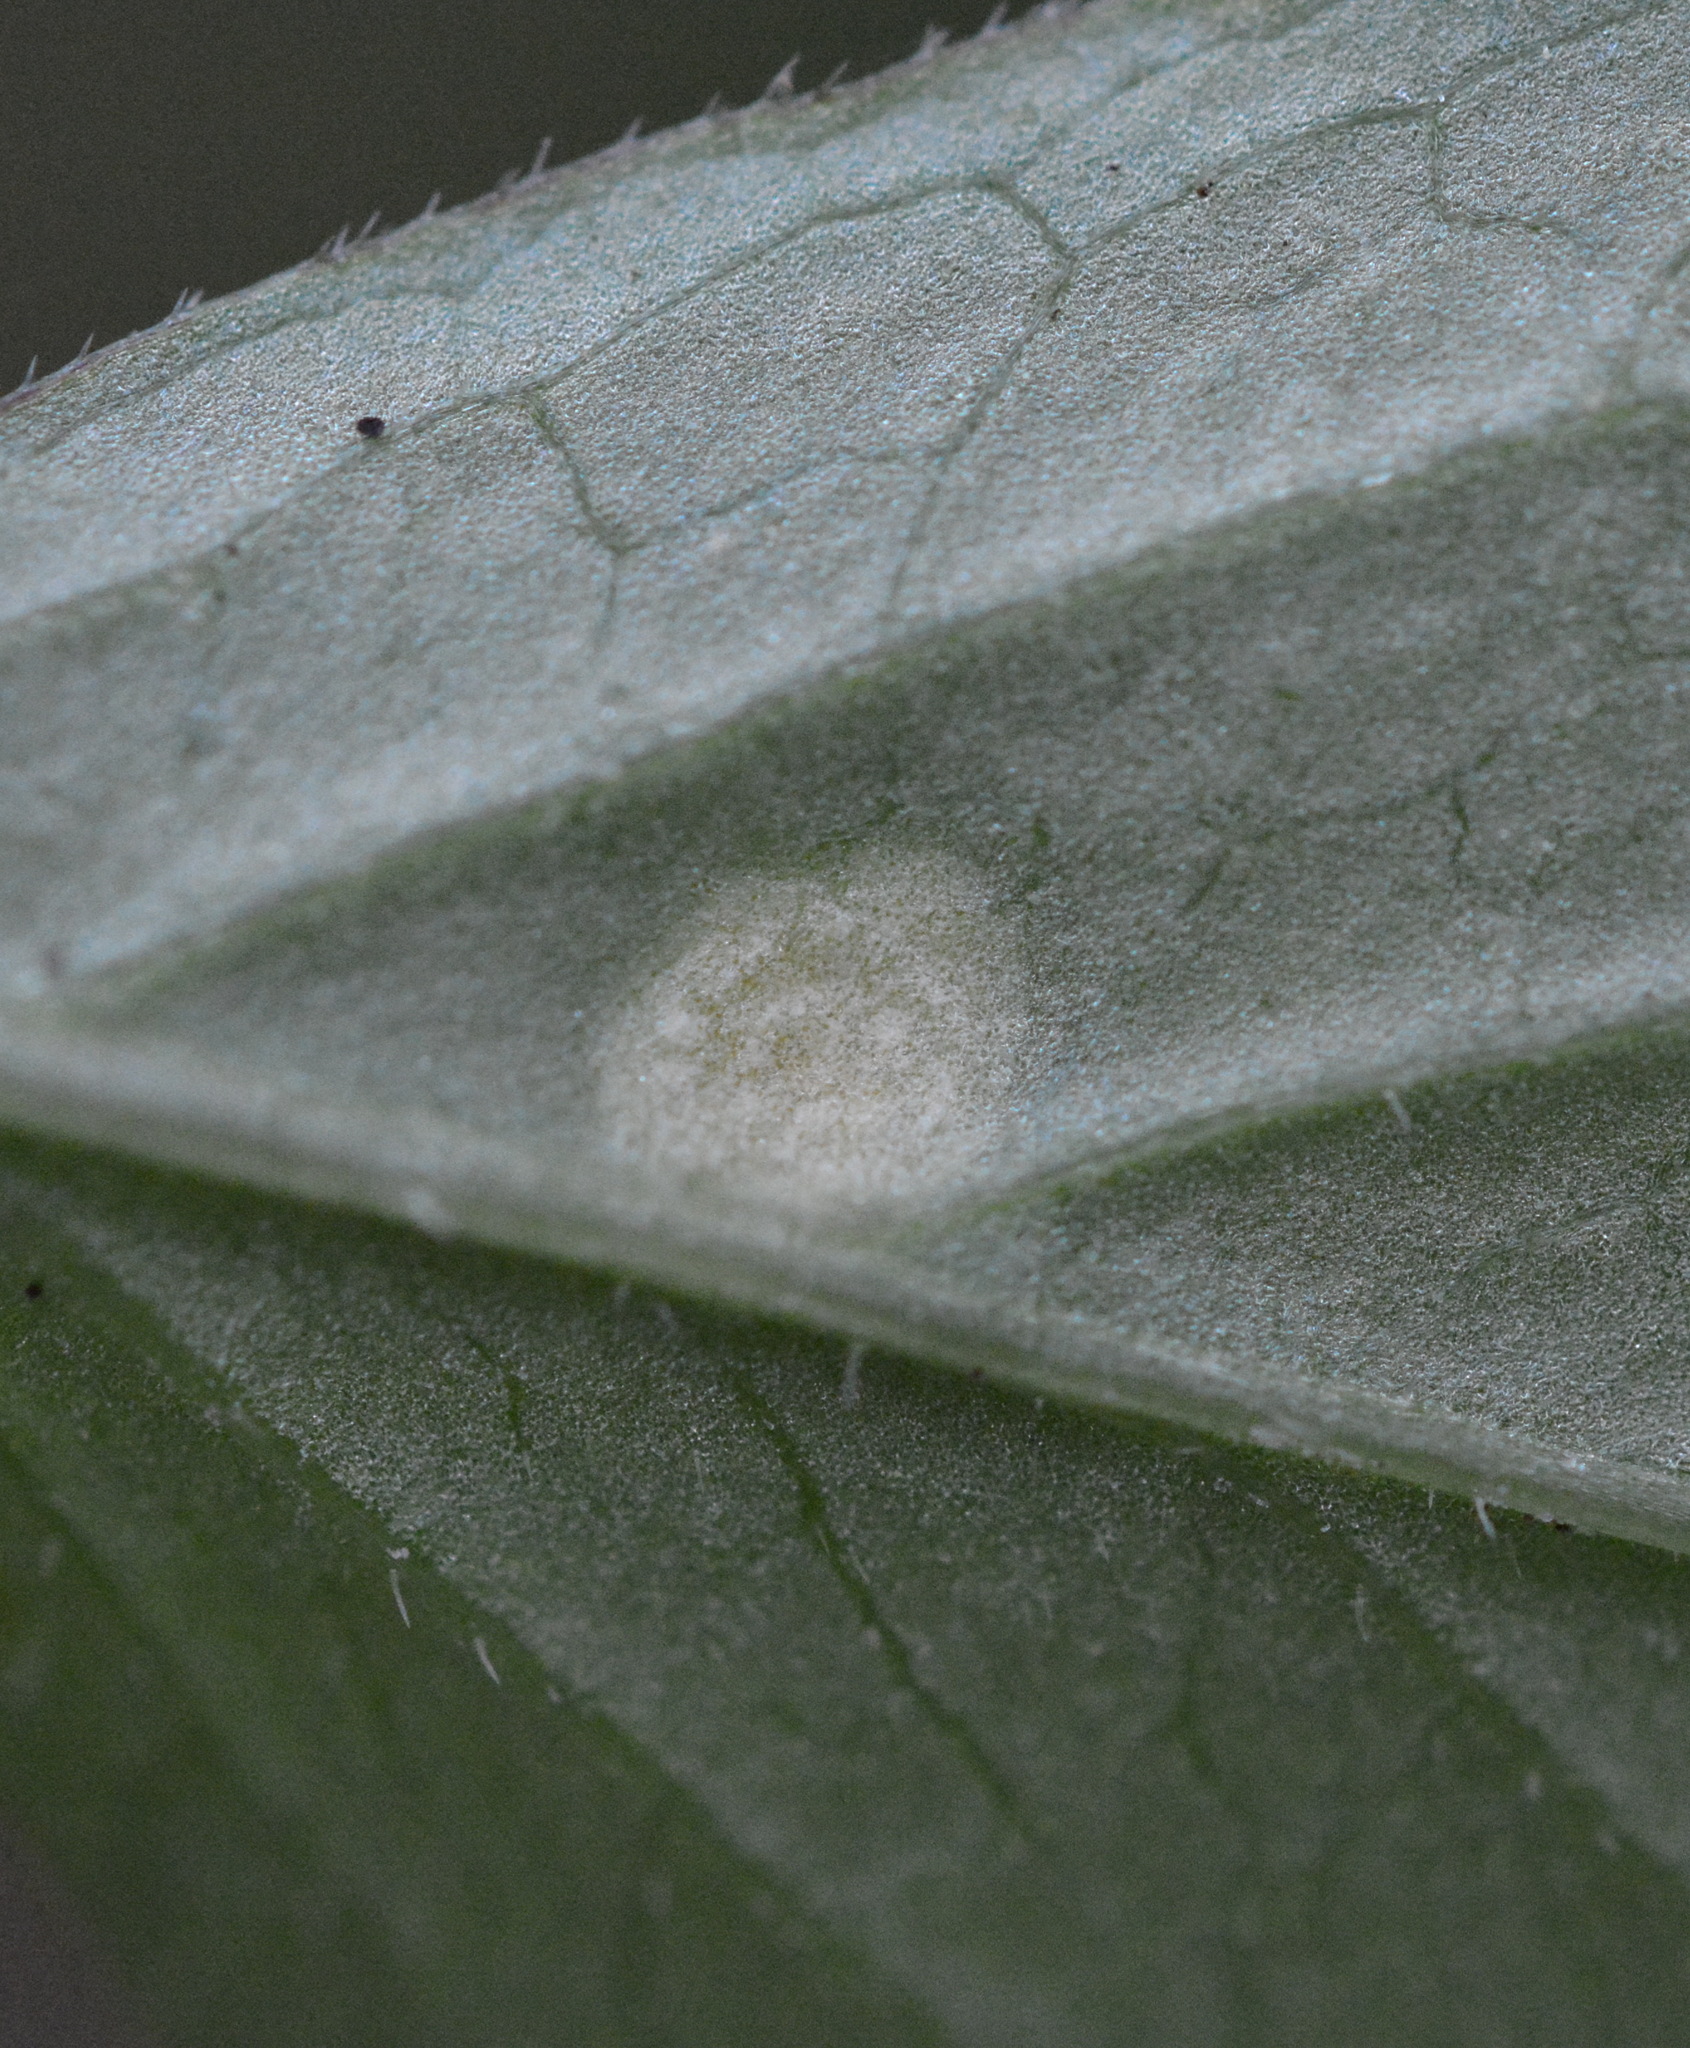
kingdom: Fungi
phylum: Basidiomycota
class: Pucciniomycetes
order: Pucciniales
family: Pucciniaceae
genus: Puccinia
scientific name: Puccinia
